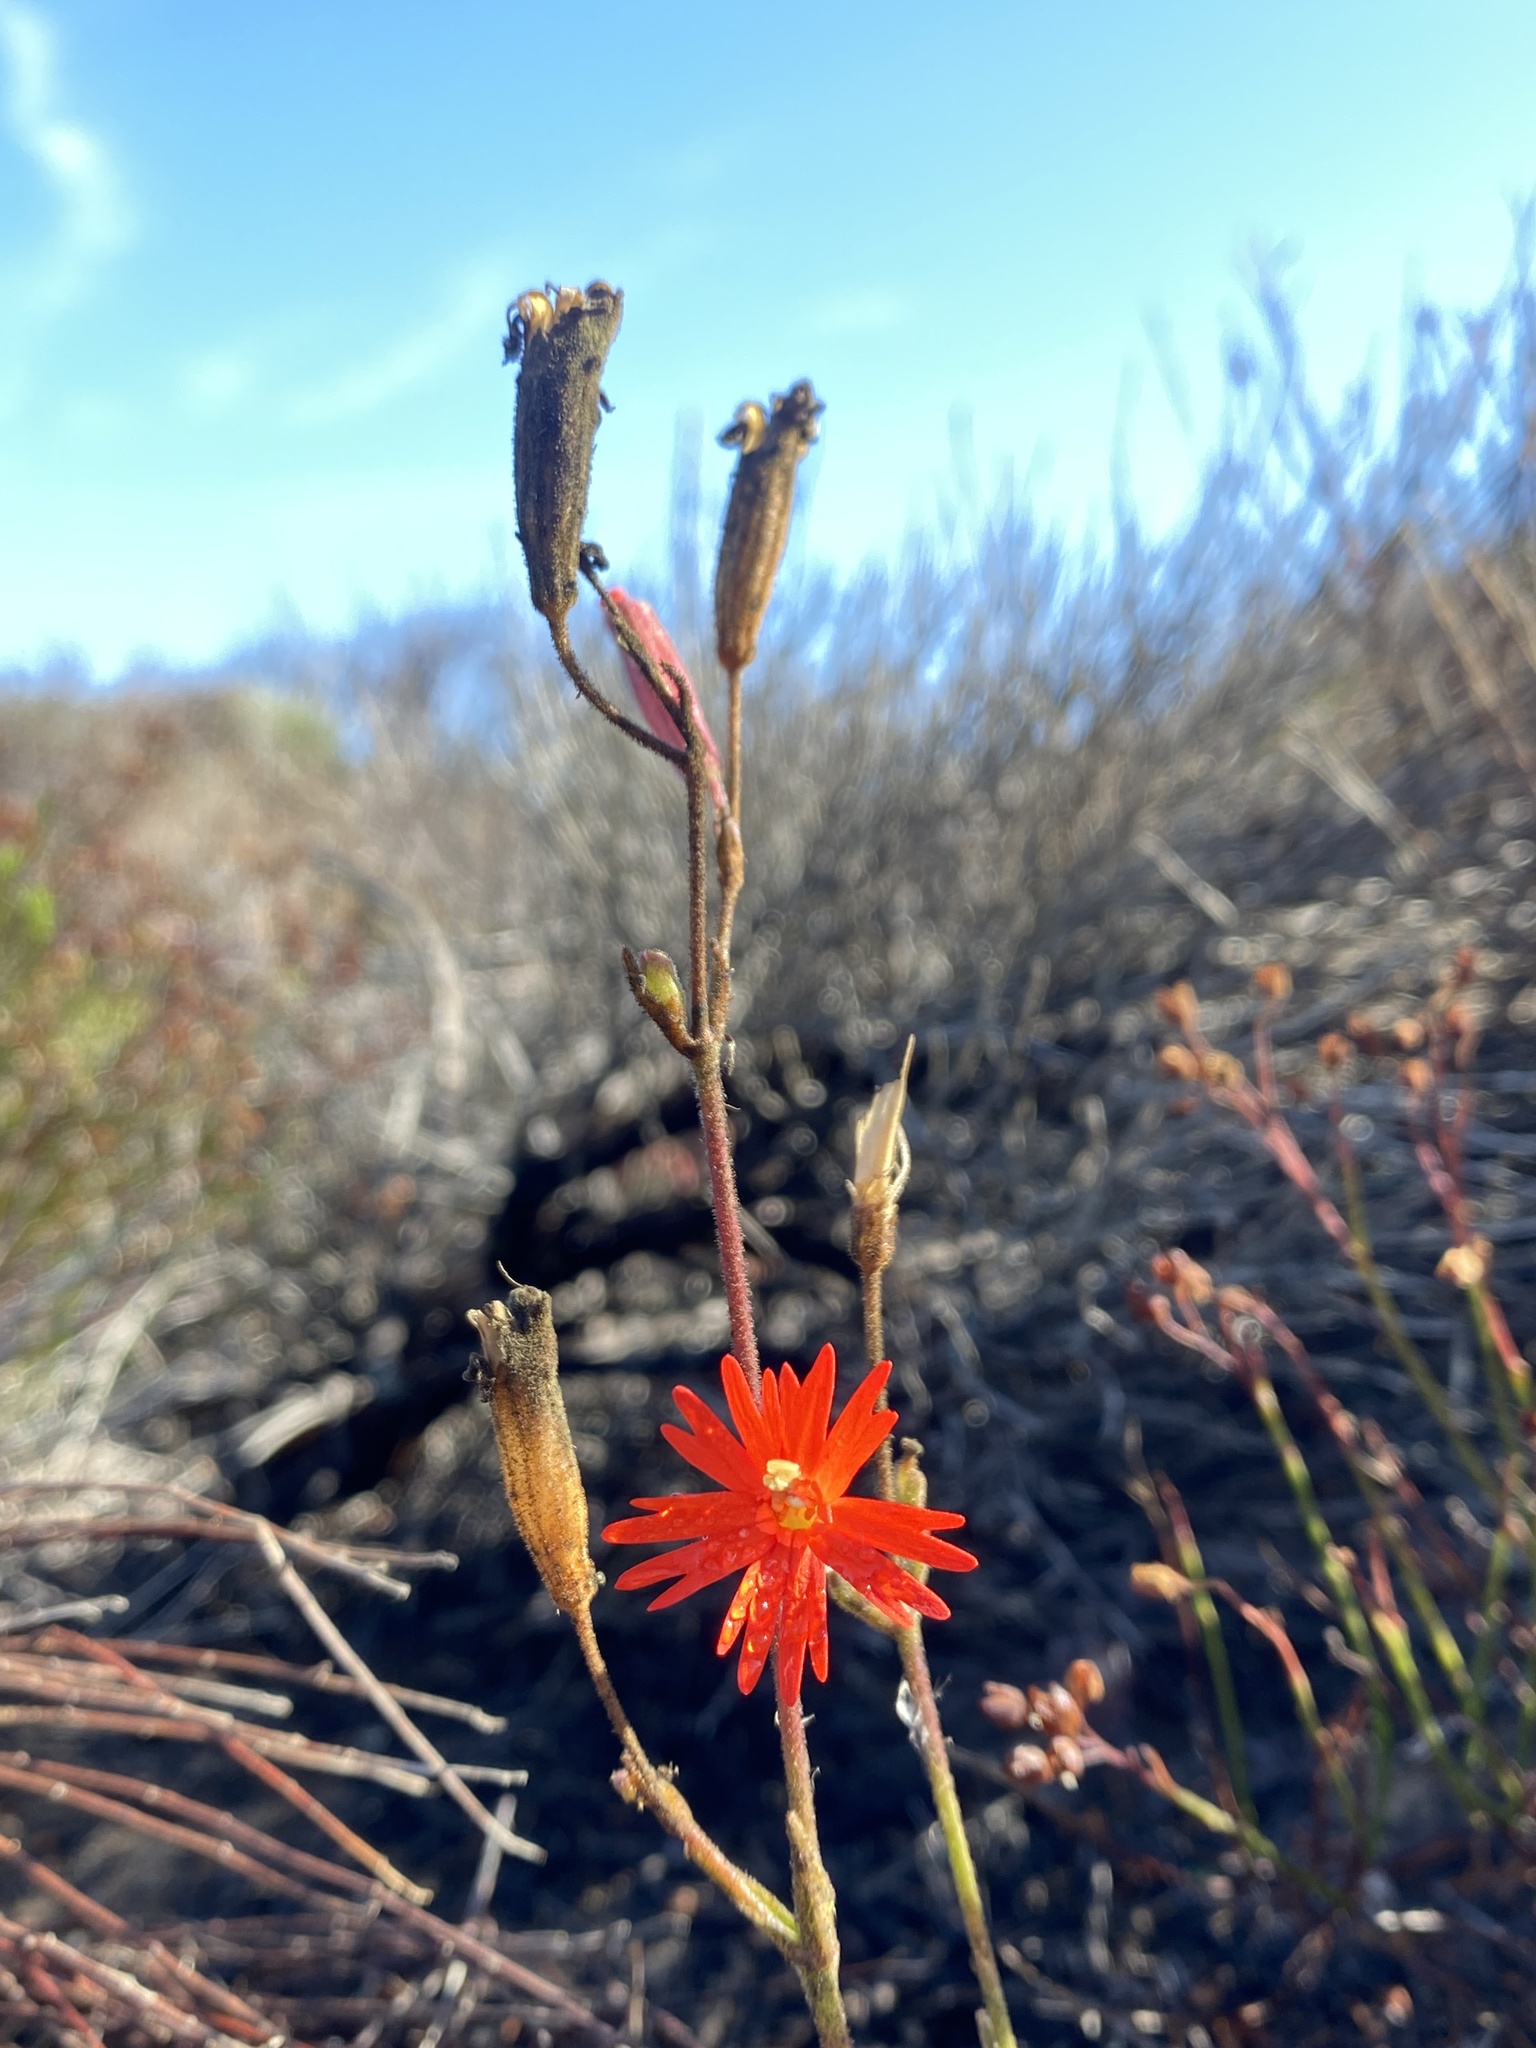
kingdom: Plantae
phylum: Tracheophyta
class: Magnoliopsida
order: Caryophyllales
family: Caryophyllaceae
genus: Silene
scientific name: Silene laciniata
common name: Indian-pink
